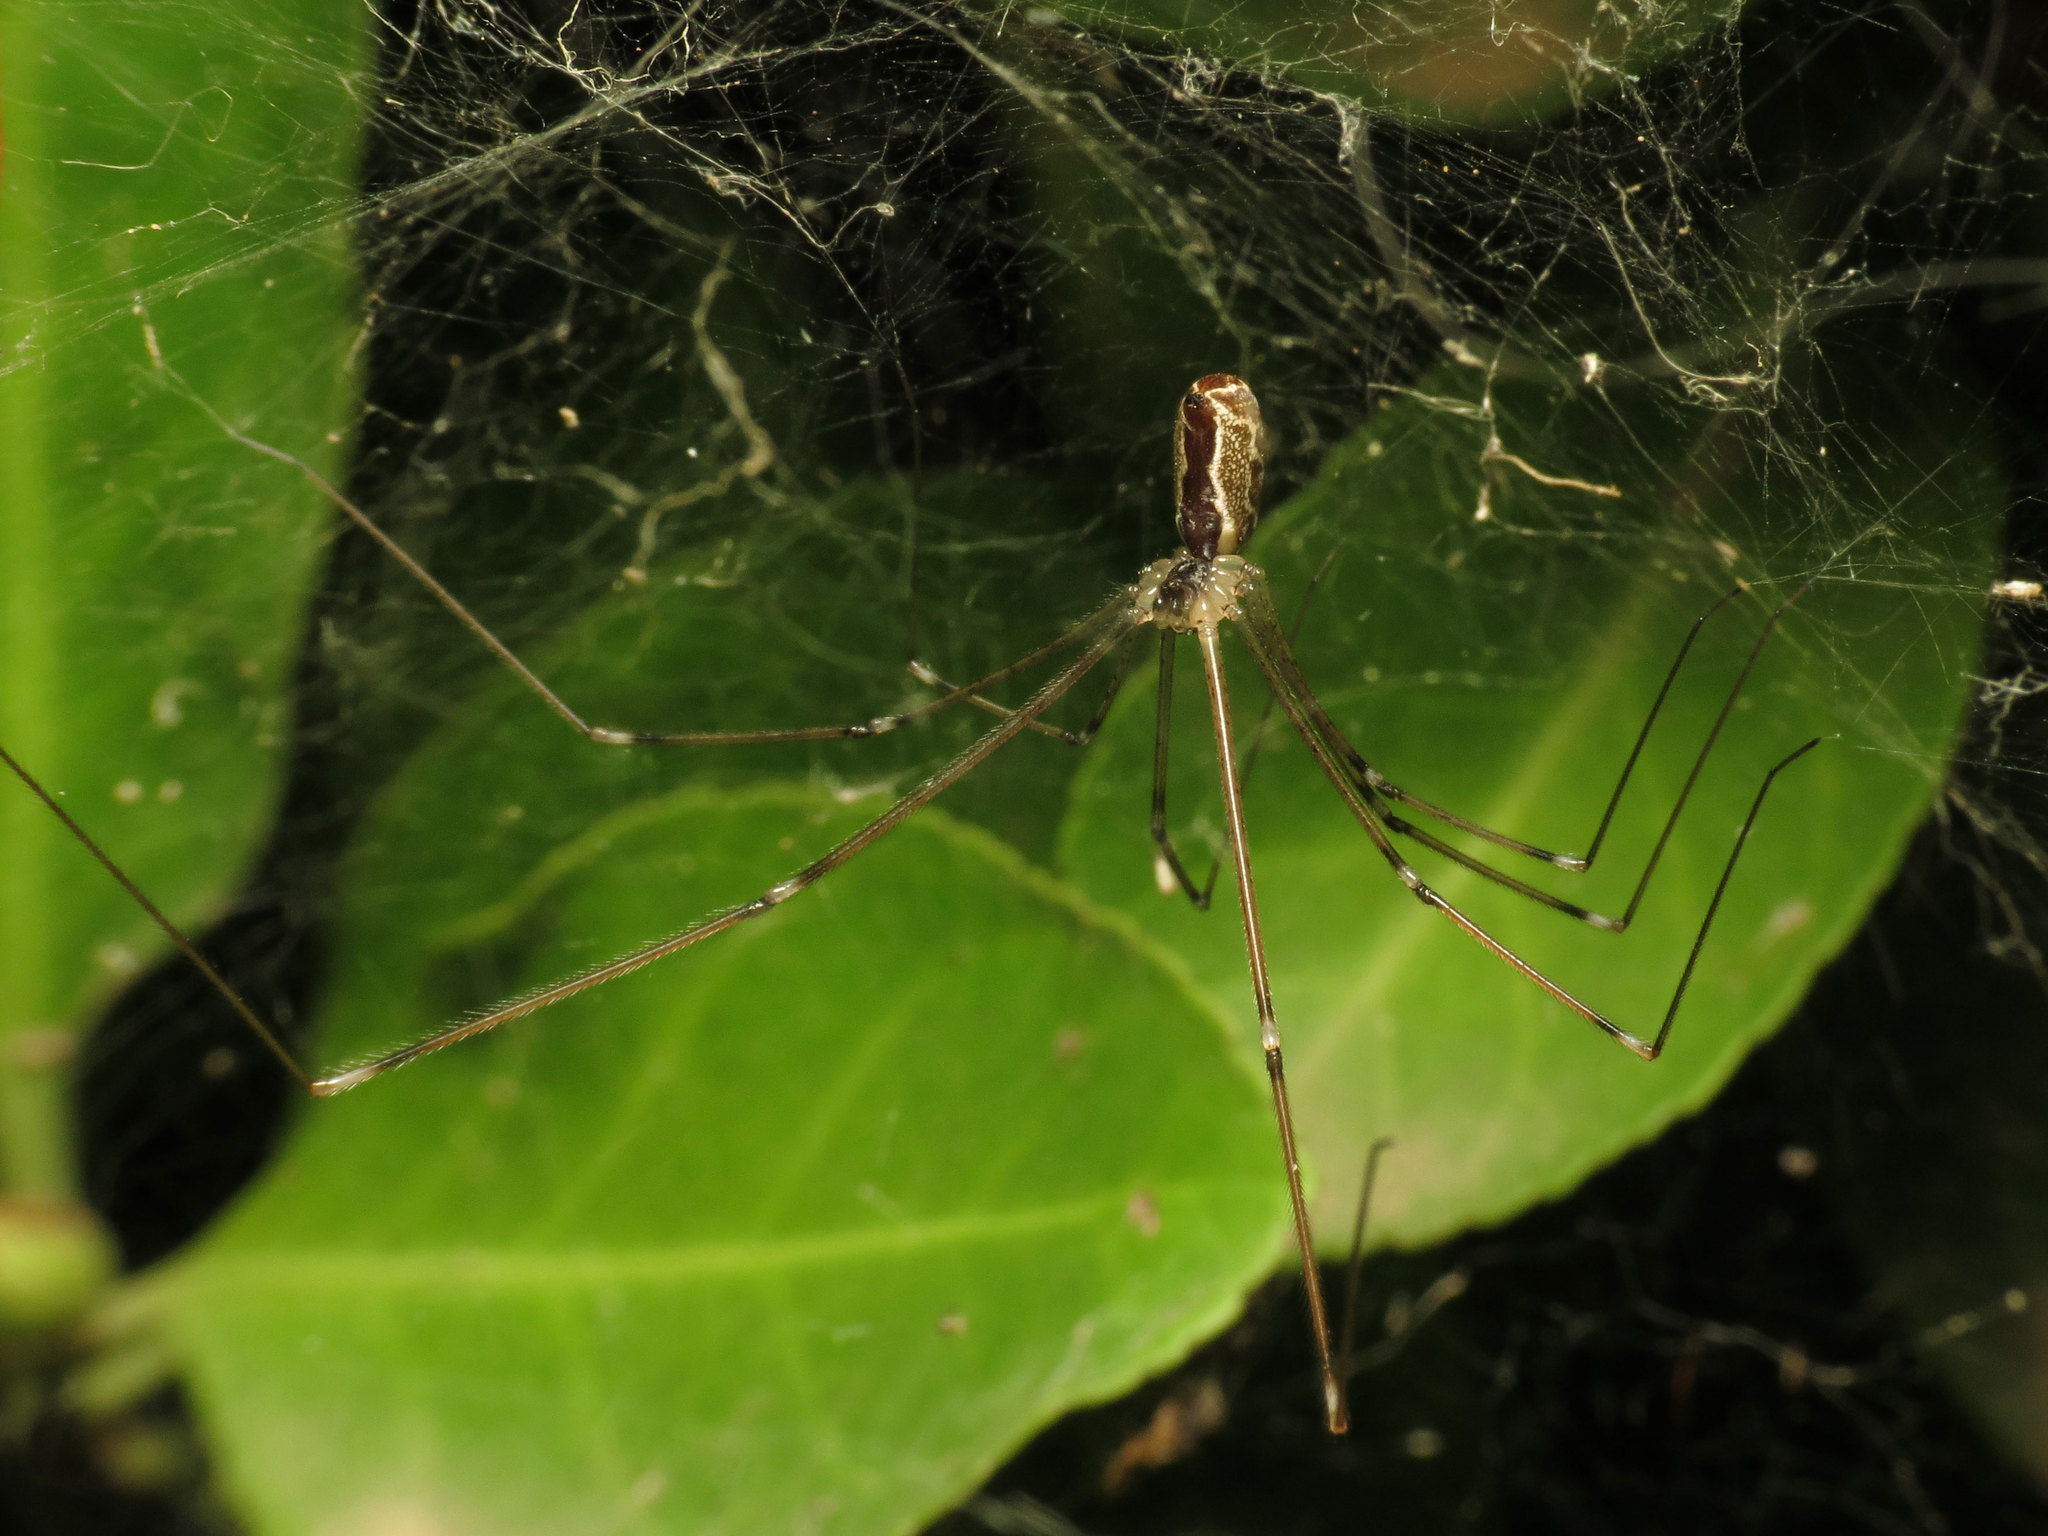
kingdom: Animalia
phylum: Arthropoda
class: Arachnida
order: Araneae
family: Pholcidae
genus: Holocnemus
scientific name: Holocnemus pluchei
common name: Marbled cellar spider
